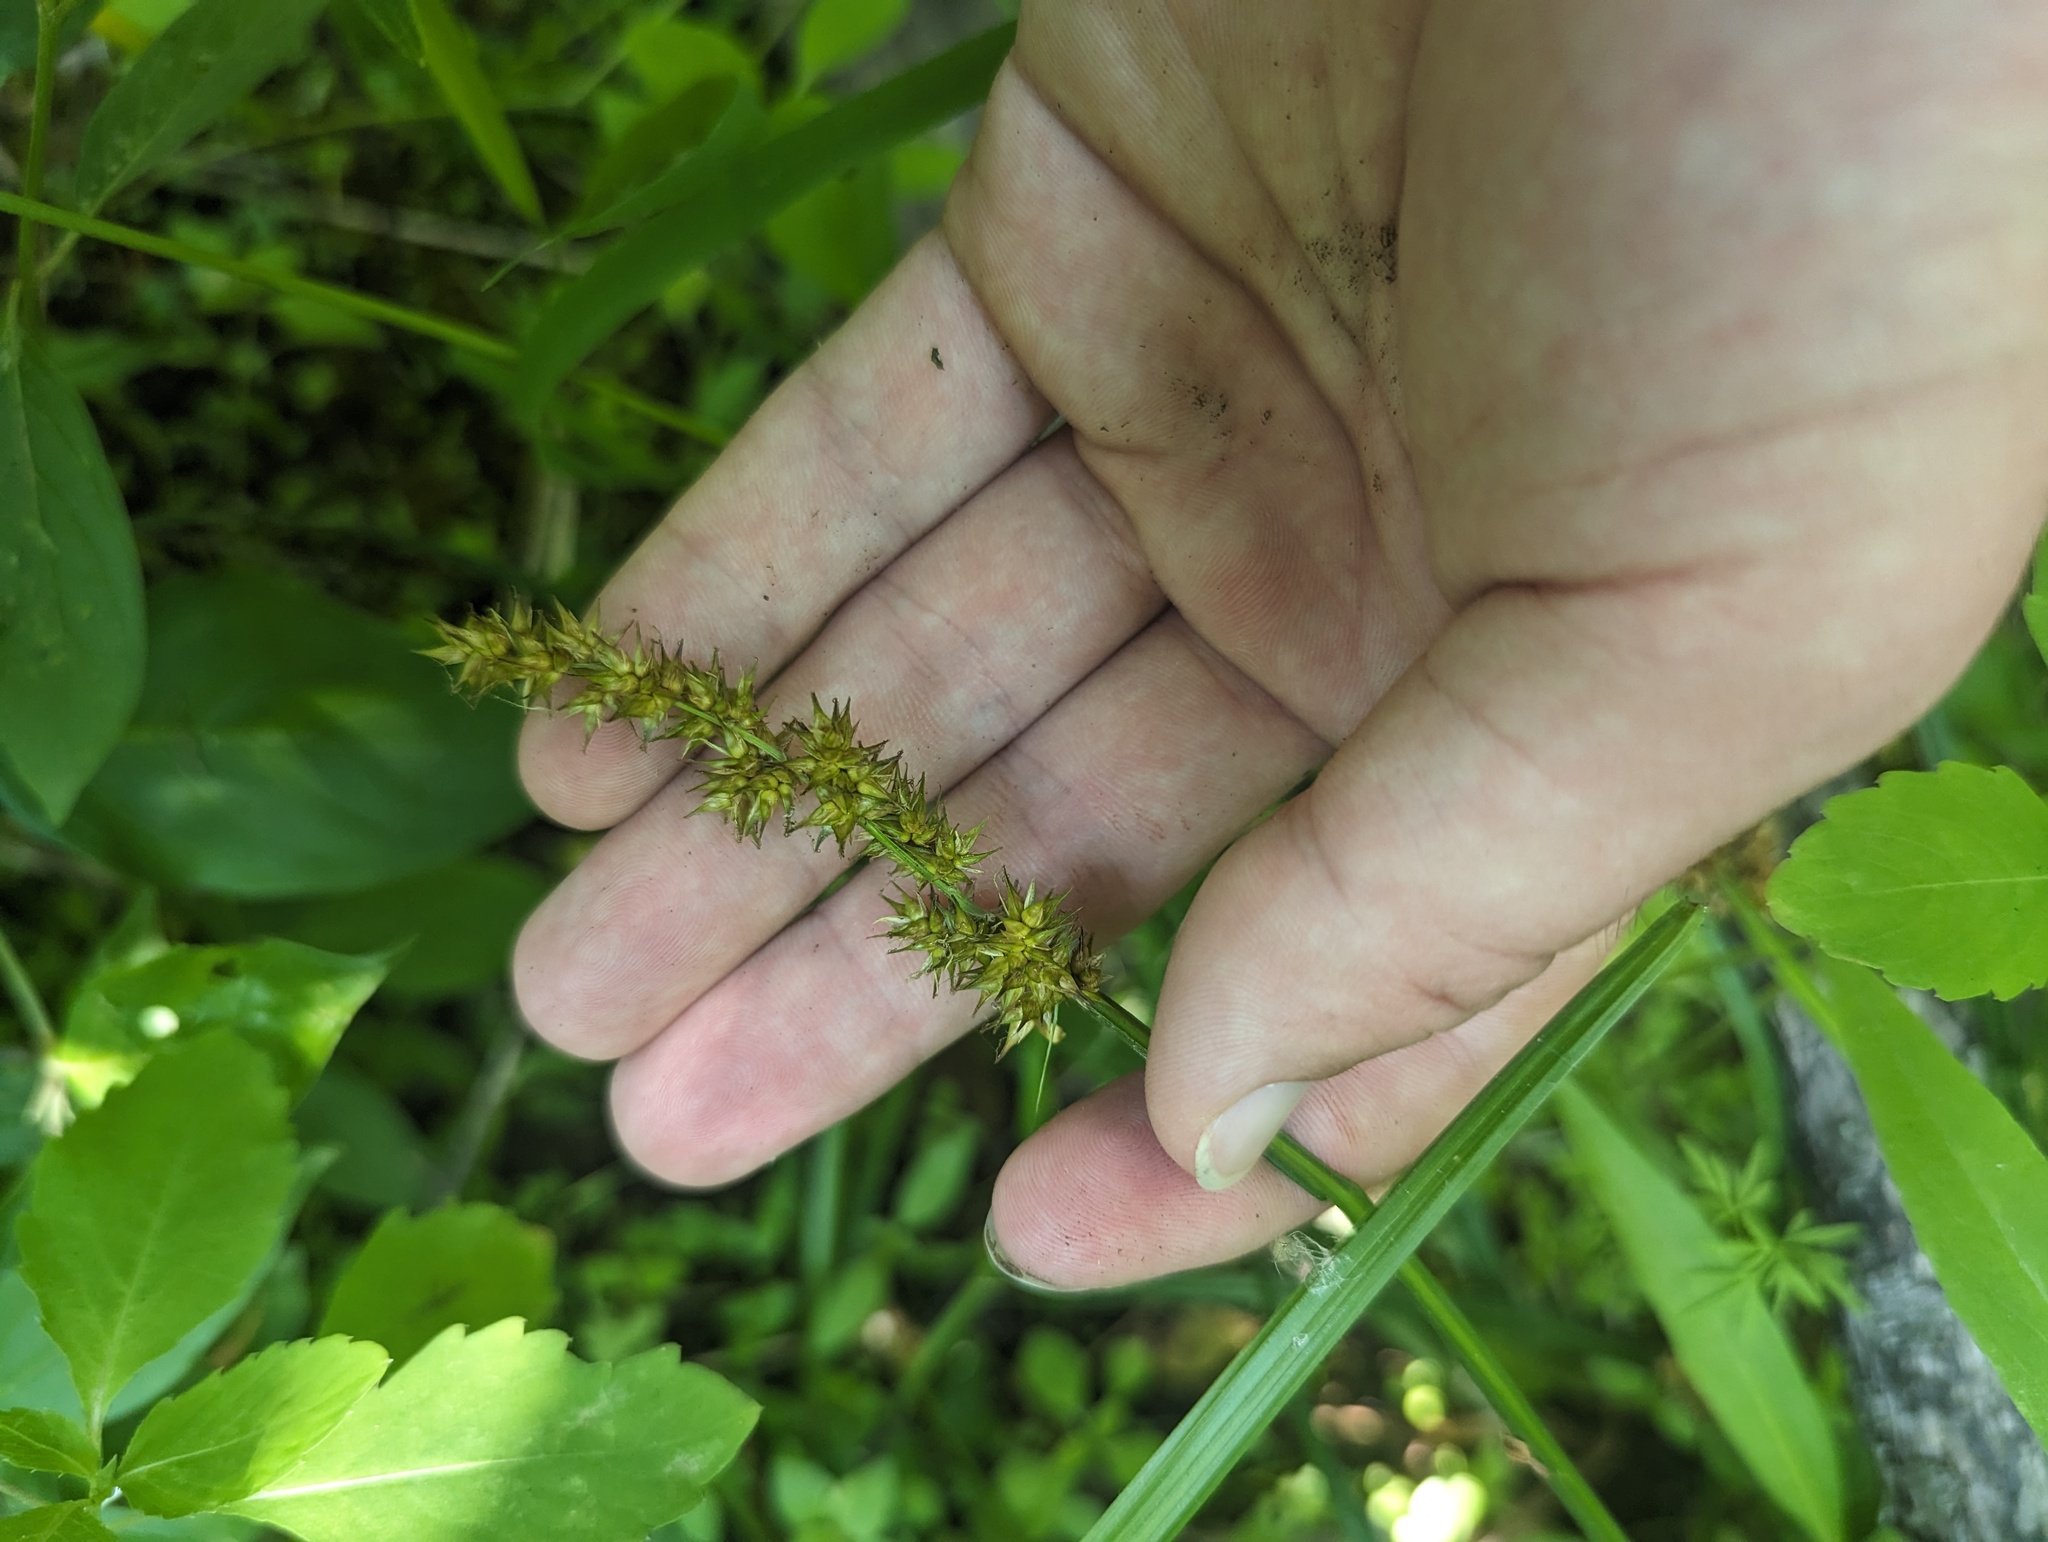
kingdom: Plantae
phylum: Tracheophyta
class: Liliopsida
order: Poales
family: Cyperaceae
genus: Carex
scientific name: Carex stipata
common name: Awl-fruited sedge
